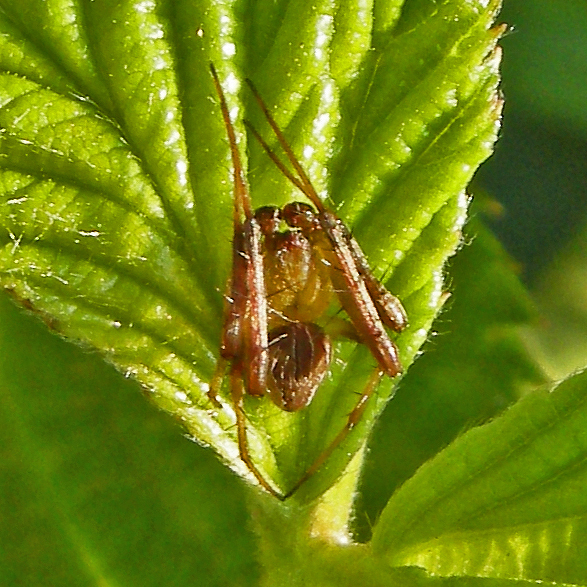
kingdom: Animalia
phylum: Arthropoda
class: Arachnida
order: Araneae
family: Araneidae
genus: Acacesia
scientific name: Acacesia hamata
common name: Orb weavers
